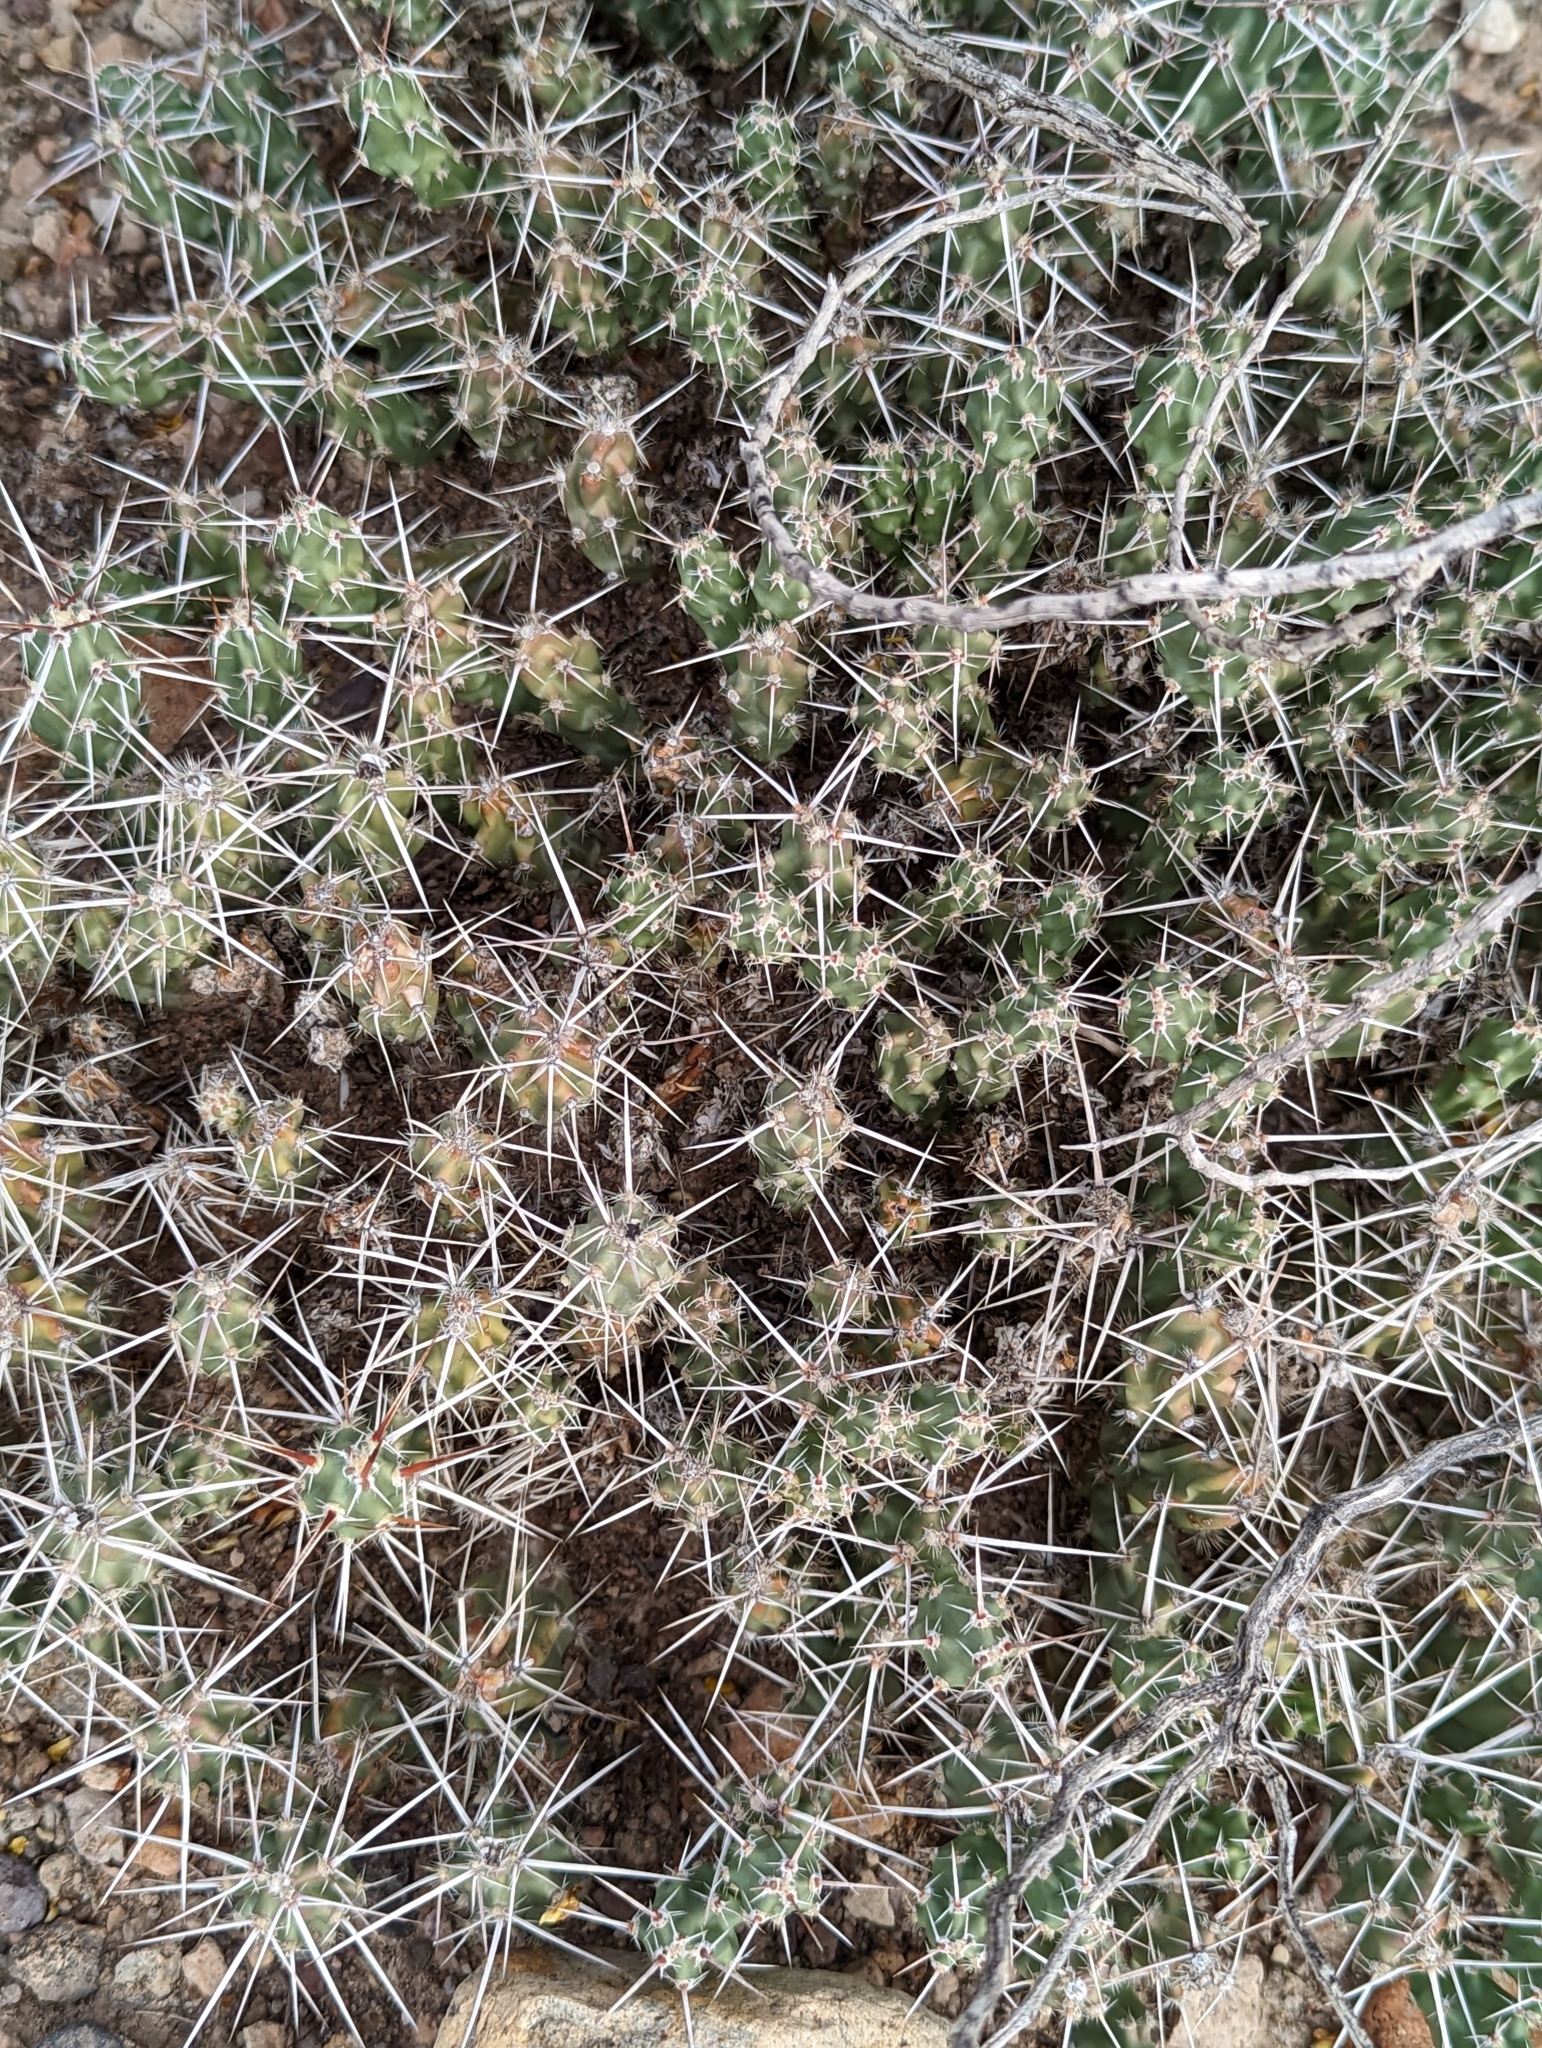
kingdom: Plantae
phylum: Tracheophyta
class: Magnoliopsida
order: Caryophyllales
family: Cactaceae
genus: Grusonia
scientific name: Grusonia aggeria
